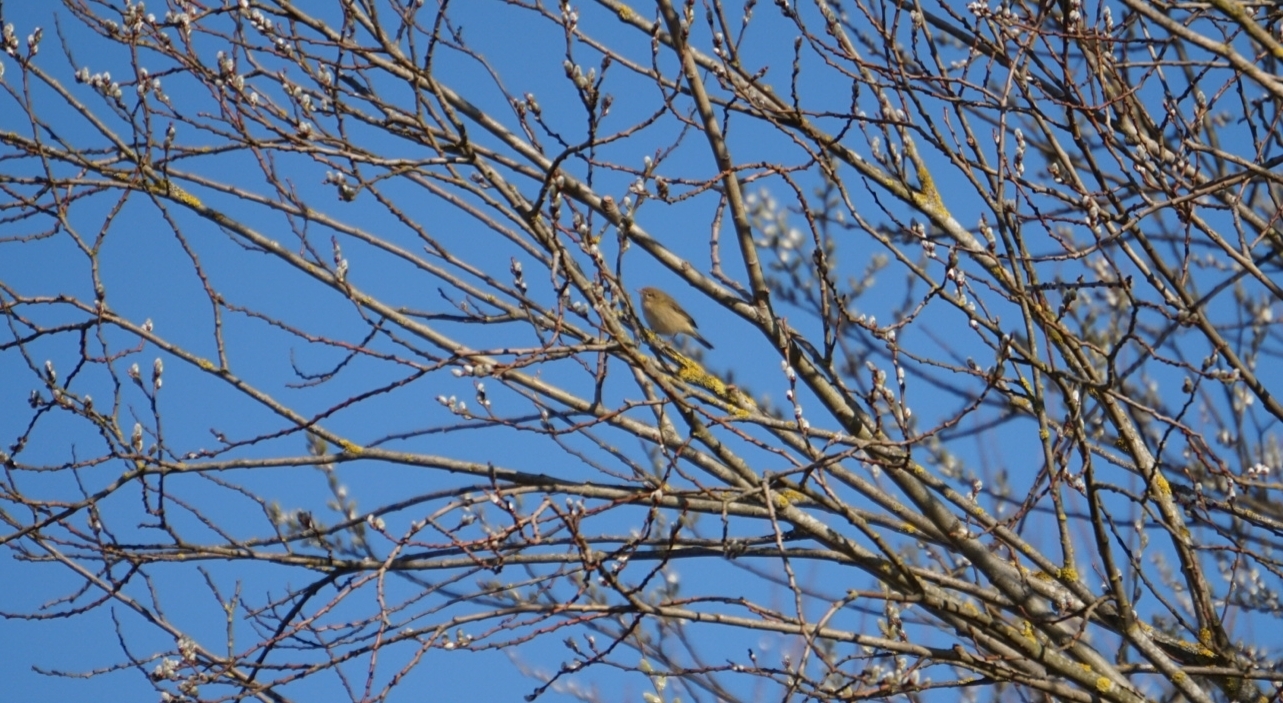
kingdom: Animalia
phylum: Chordata
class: Aves
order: Passeriformes
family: Phylloscopidae
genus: Phylloscopus
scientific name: Phylloscopus collybita
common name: Common chiffchaff
